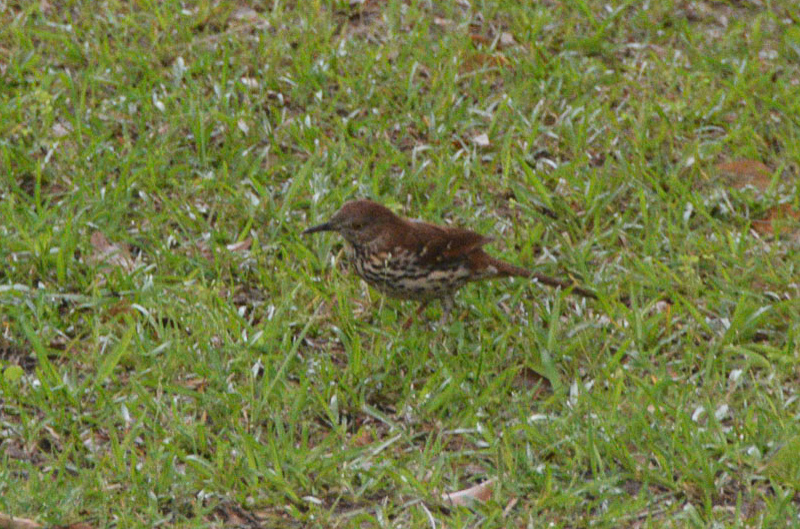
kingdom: Animalia
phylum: Chordata
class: Aves
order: Passeriformes
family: Mimidae
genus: Toxostoma
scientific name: Toxostoma rufum
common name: Brown thrasher
